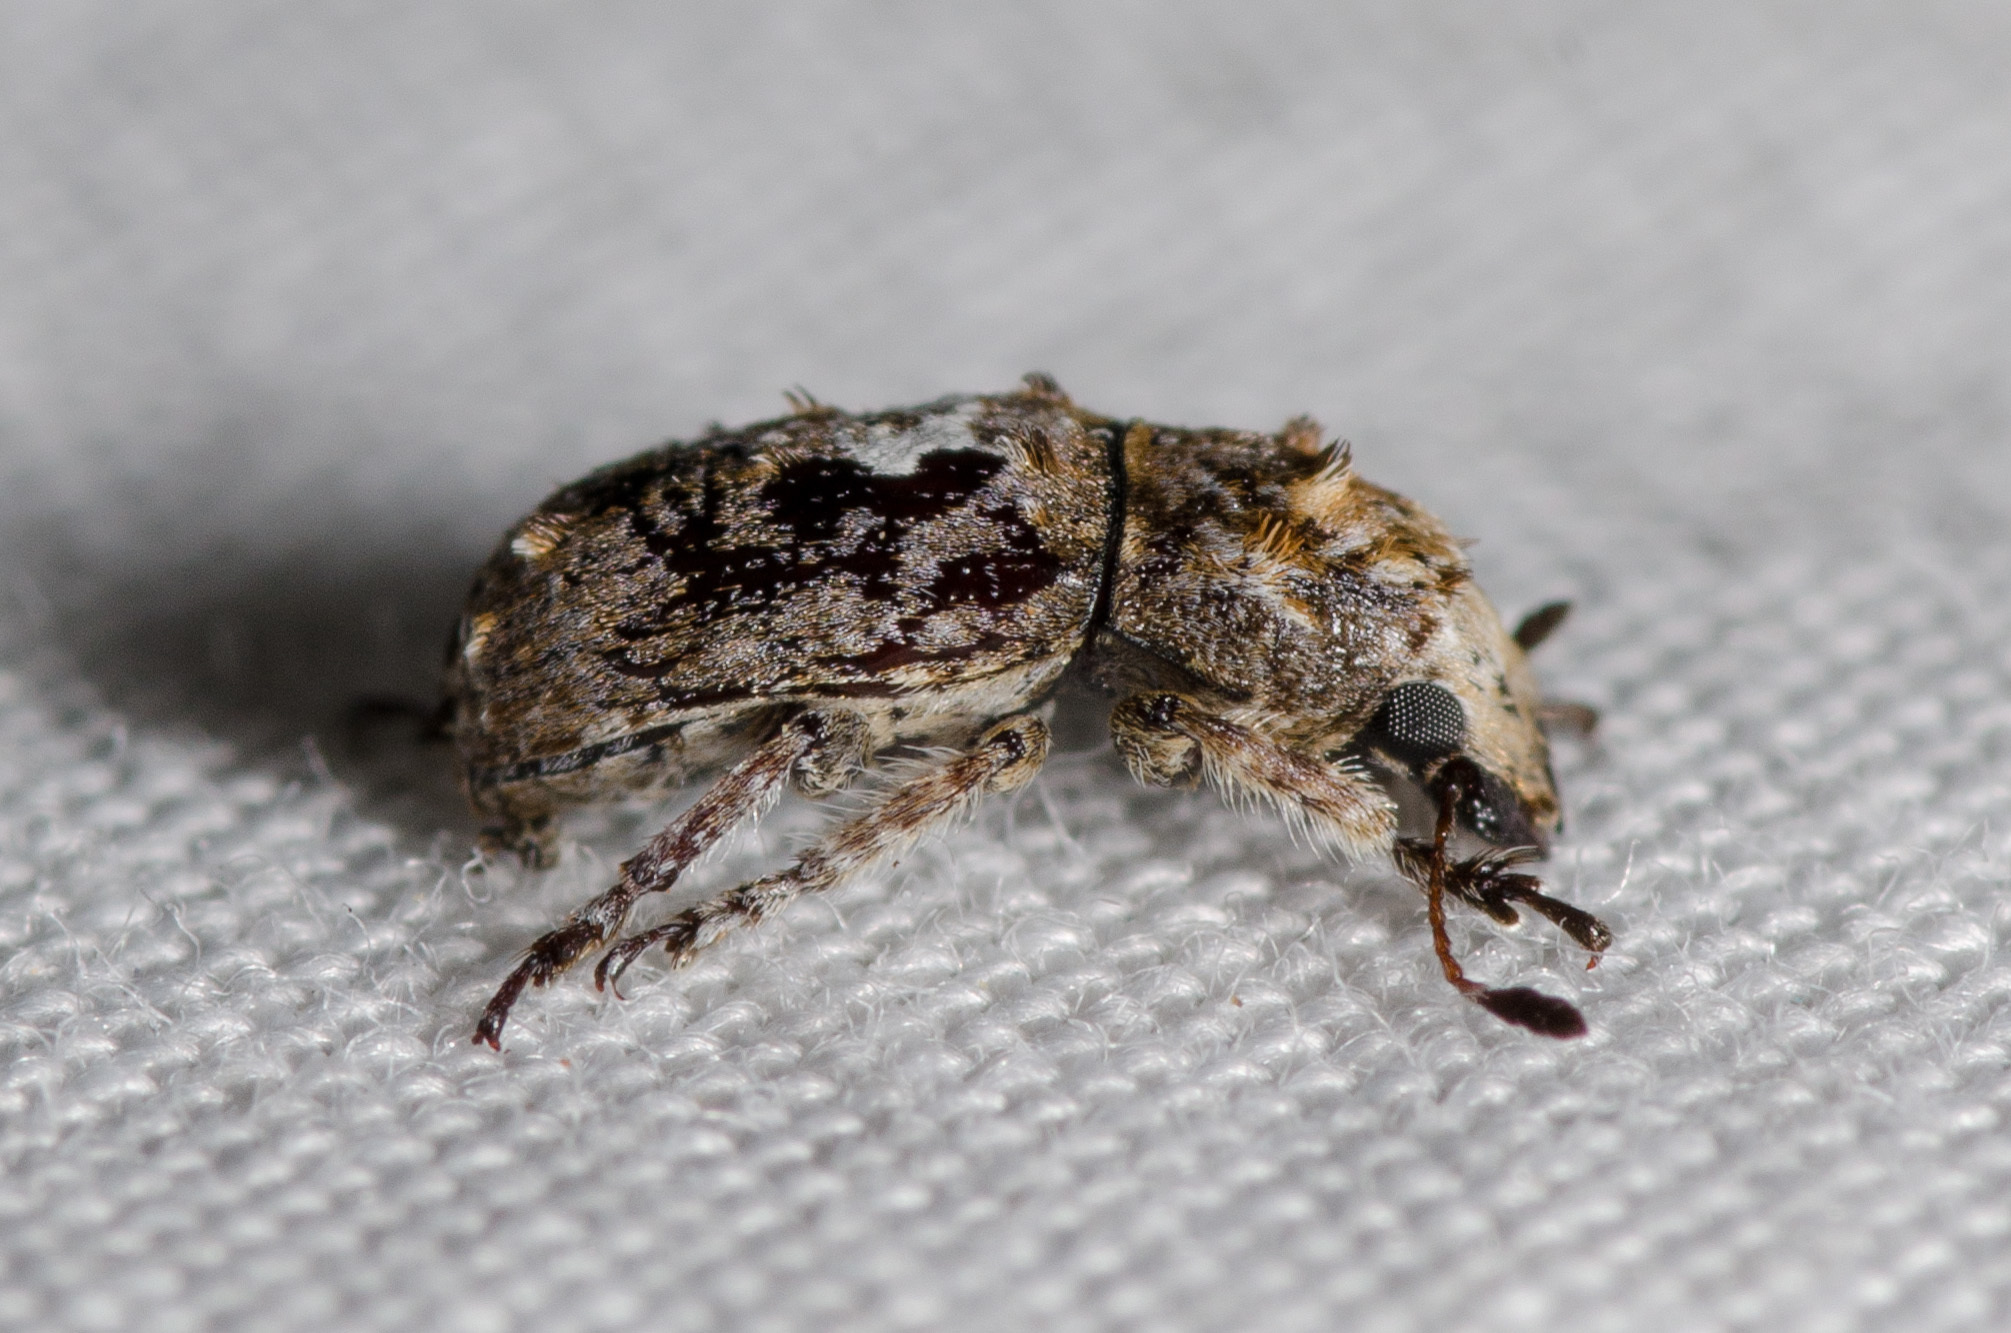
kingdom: Animalia
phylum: Arthropoda
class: Insecta
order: Coleoptera
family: Anthribidae
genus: Toxonotus
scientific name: Toxonotus cornutus
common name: Fungus weevil
